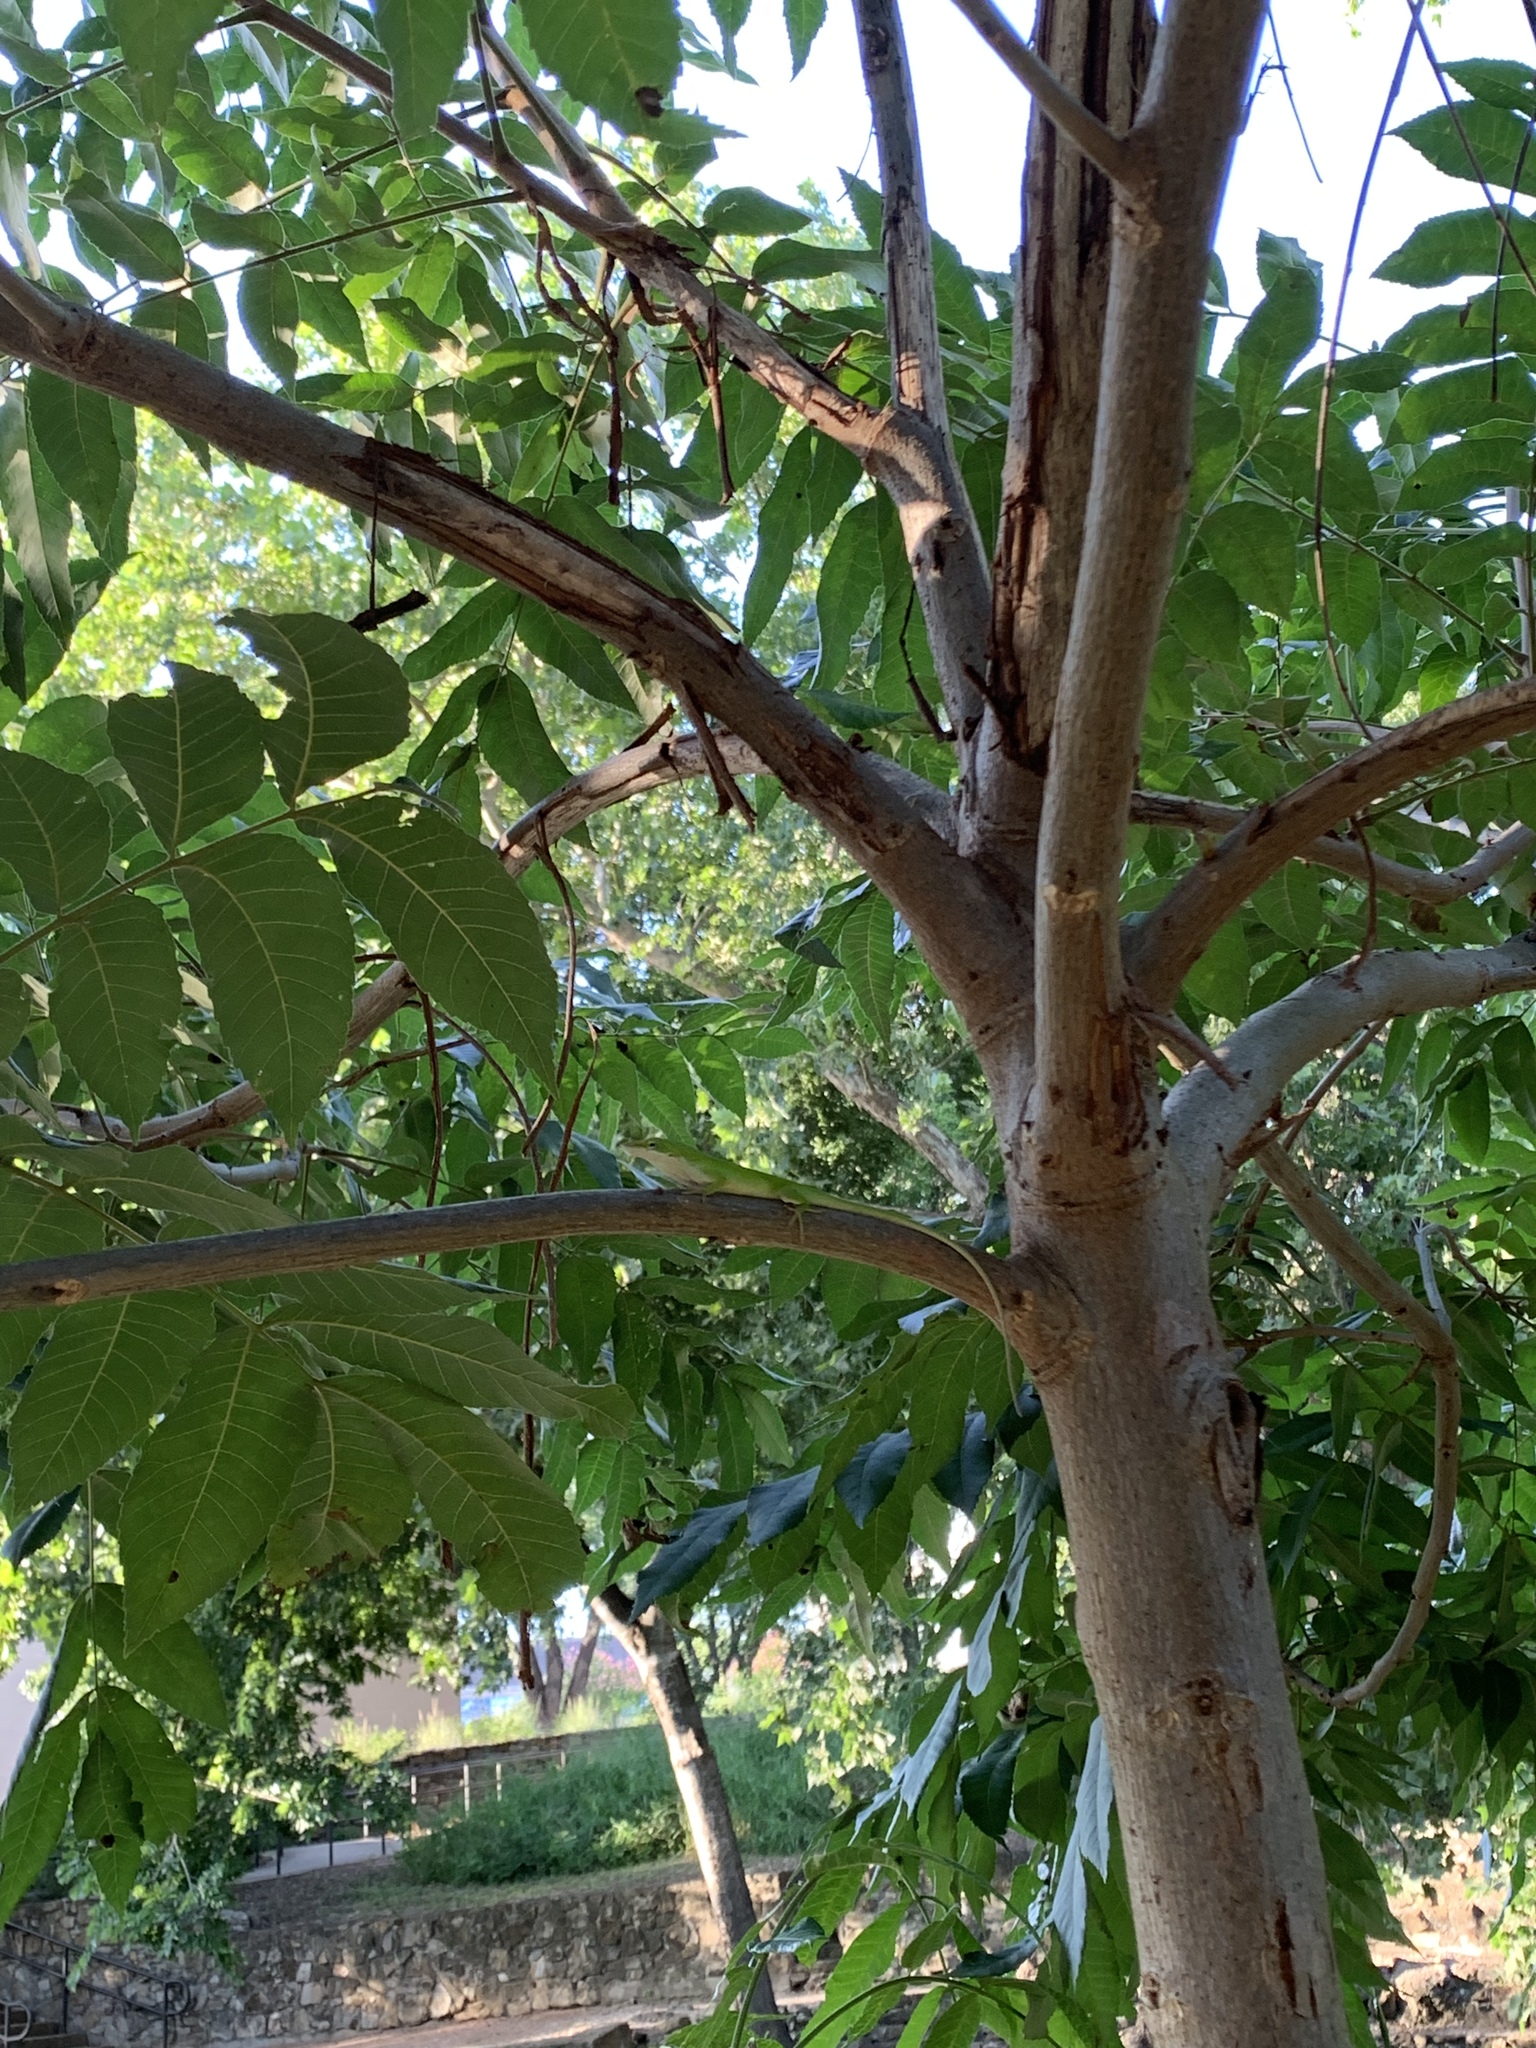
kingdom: Animalia
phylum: Chordata
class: Squamata
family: Dactyloidae
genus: Anolis
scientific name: Anolis carolinensis
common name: Green anole
